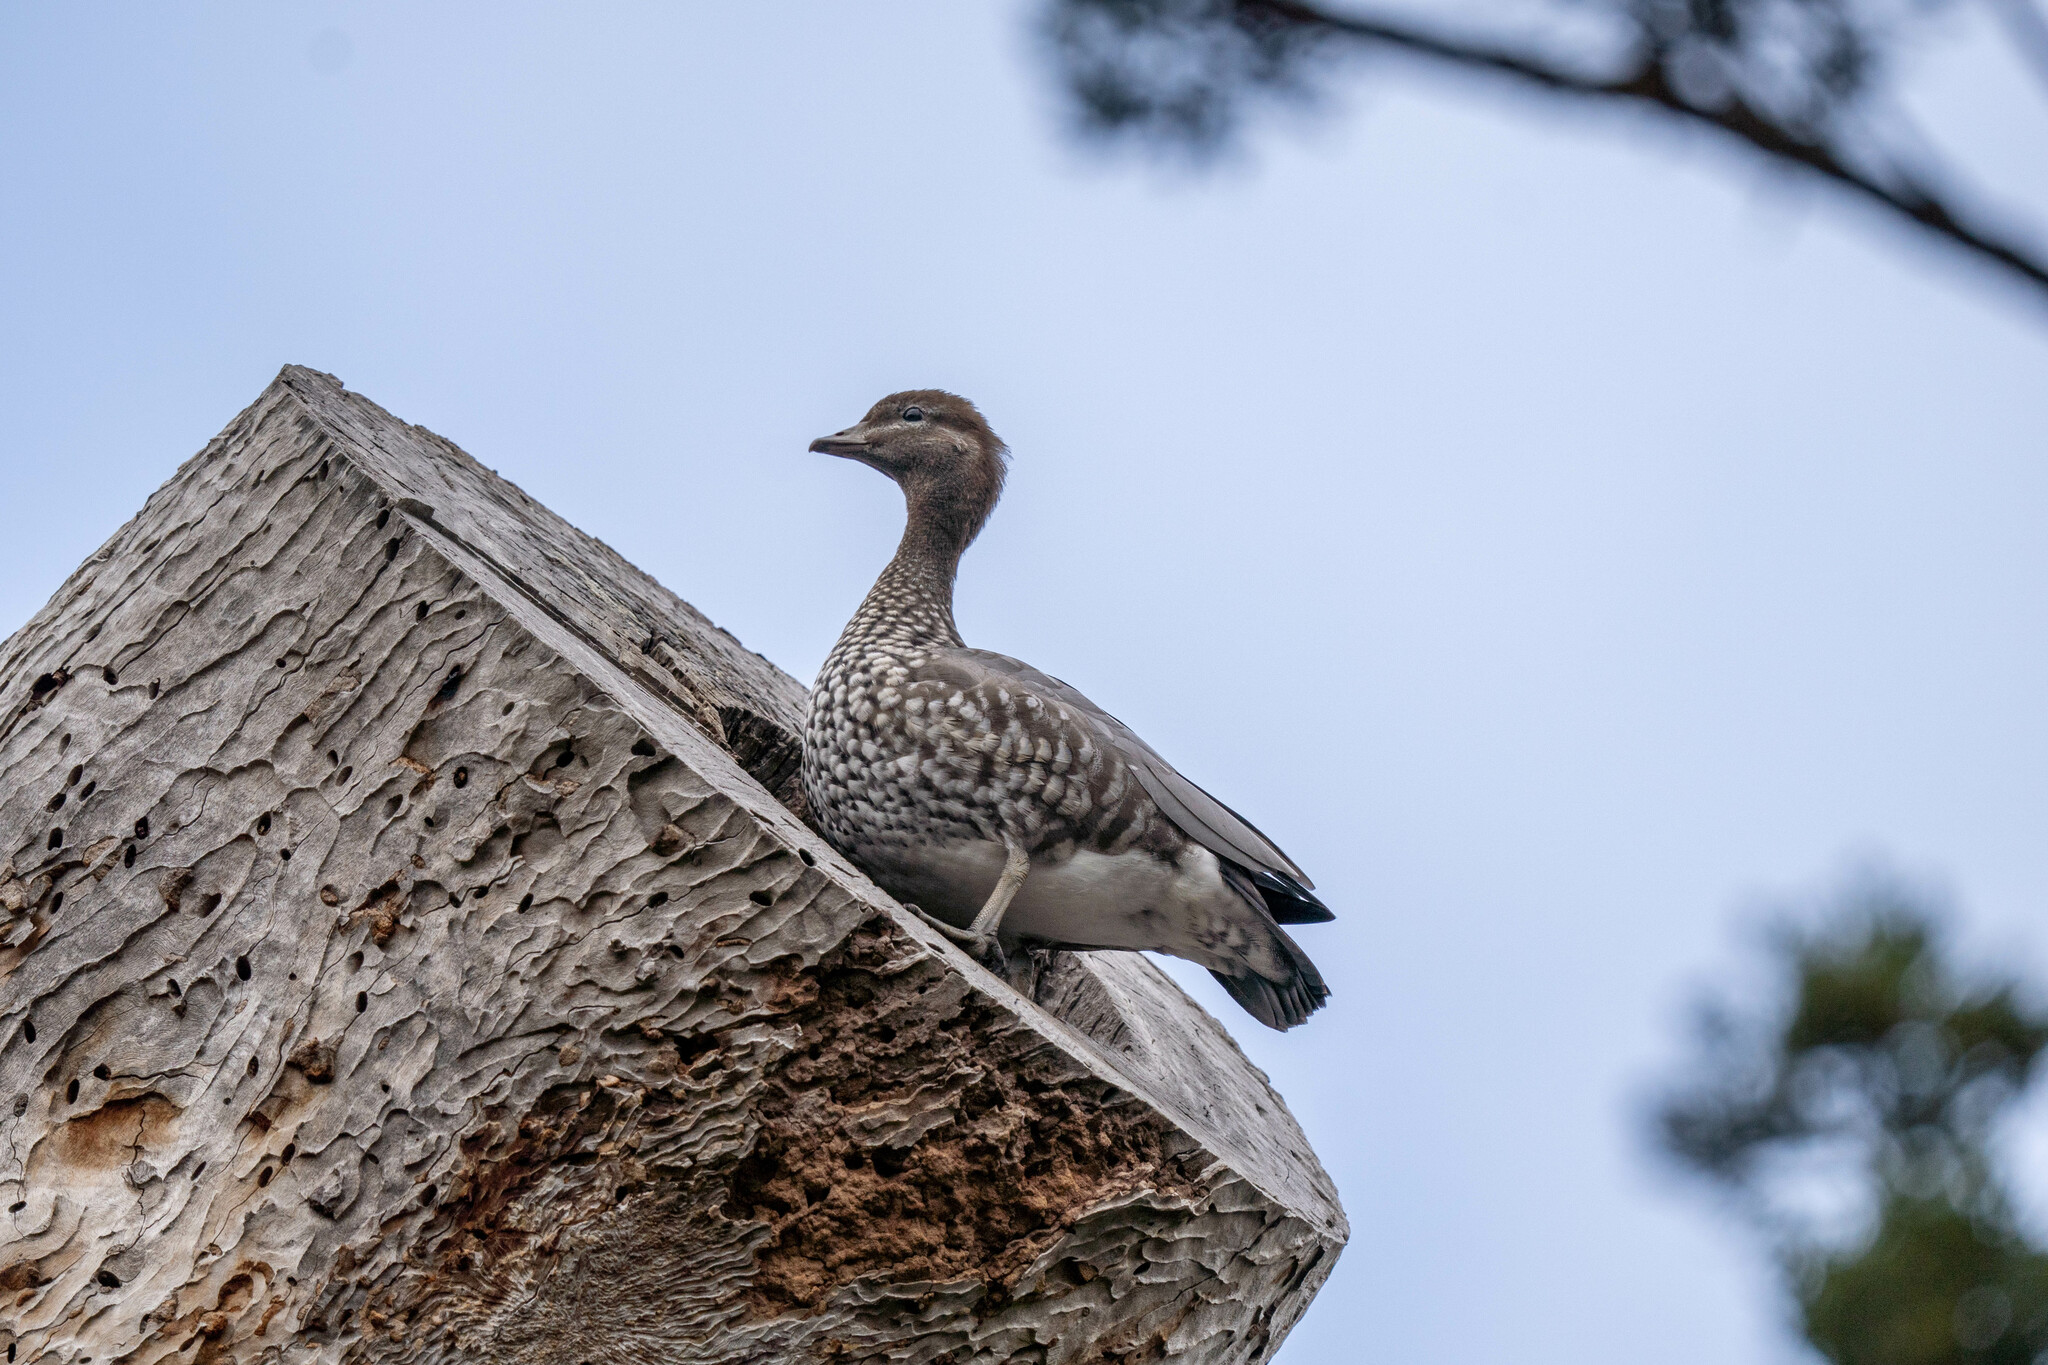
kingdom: Animalia
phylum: Chordata
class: Aves
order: Anseriformes
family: Anatidae
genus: Chenonetta
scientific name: Chenonetta jubata
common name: Maned duck
